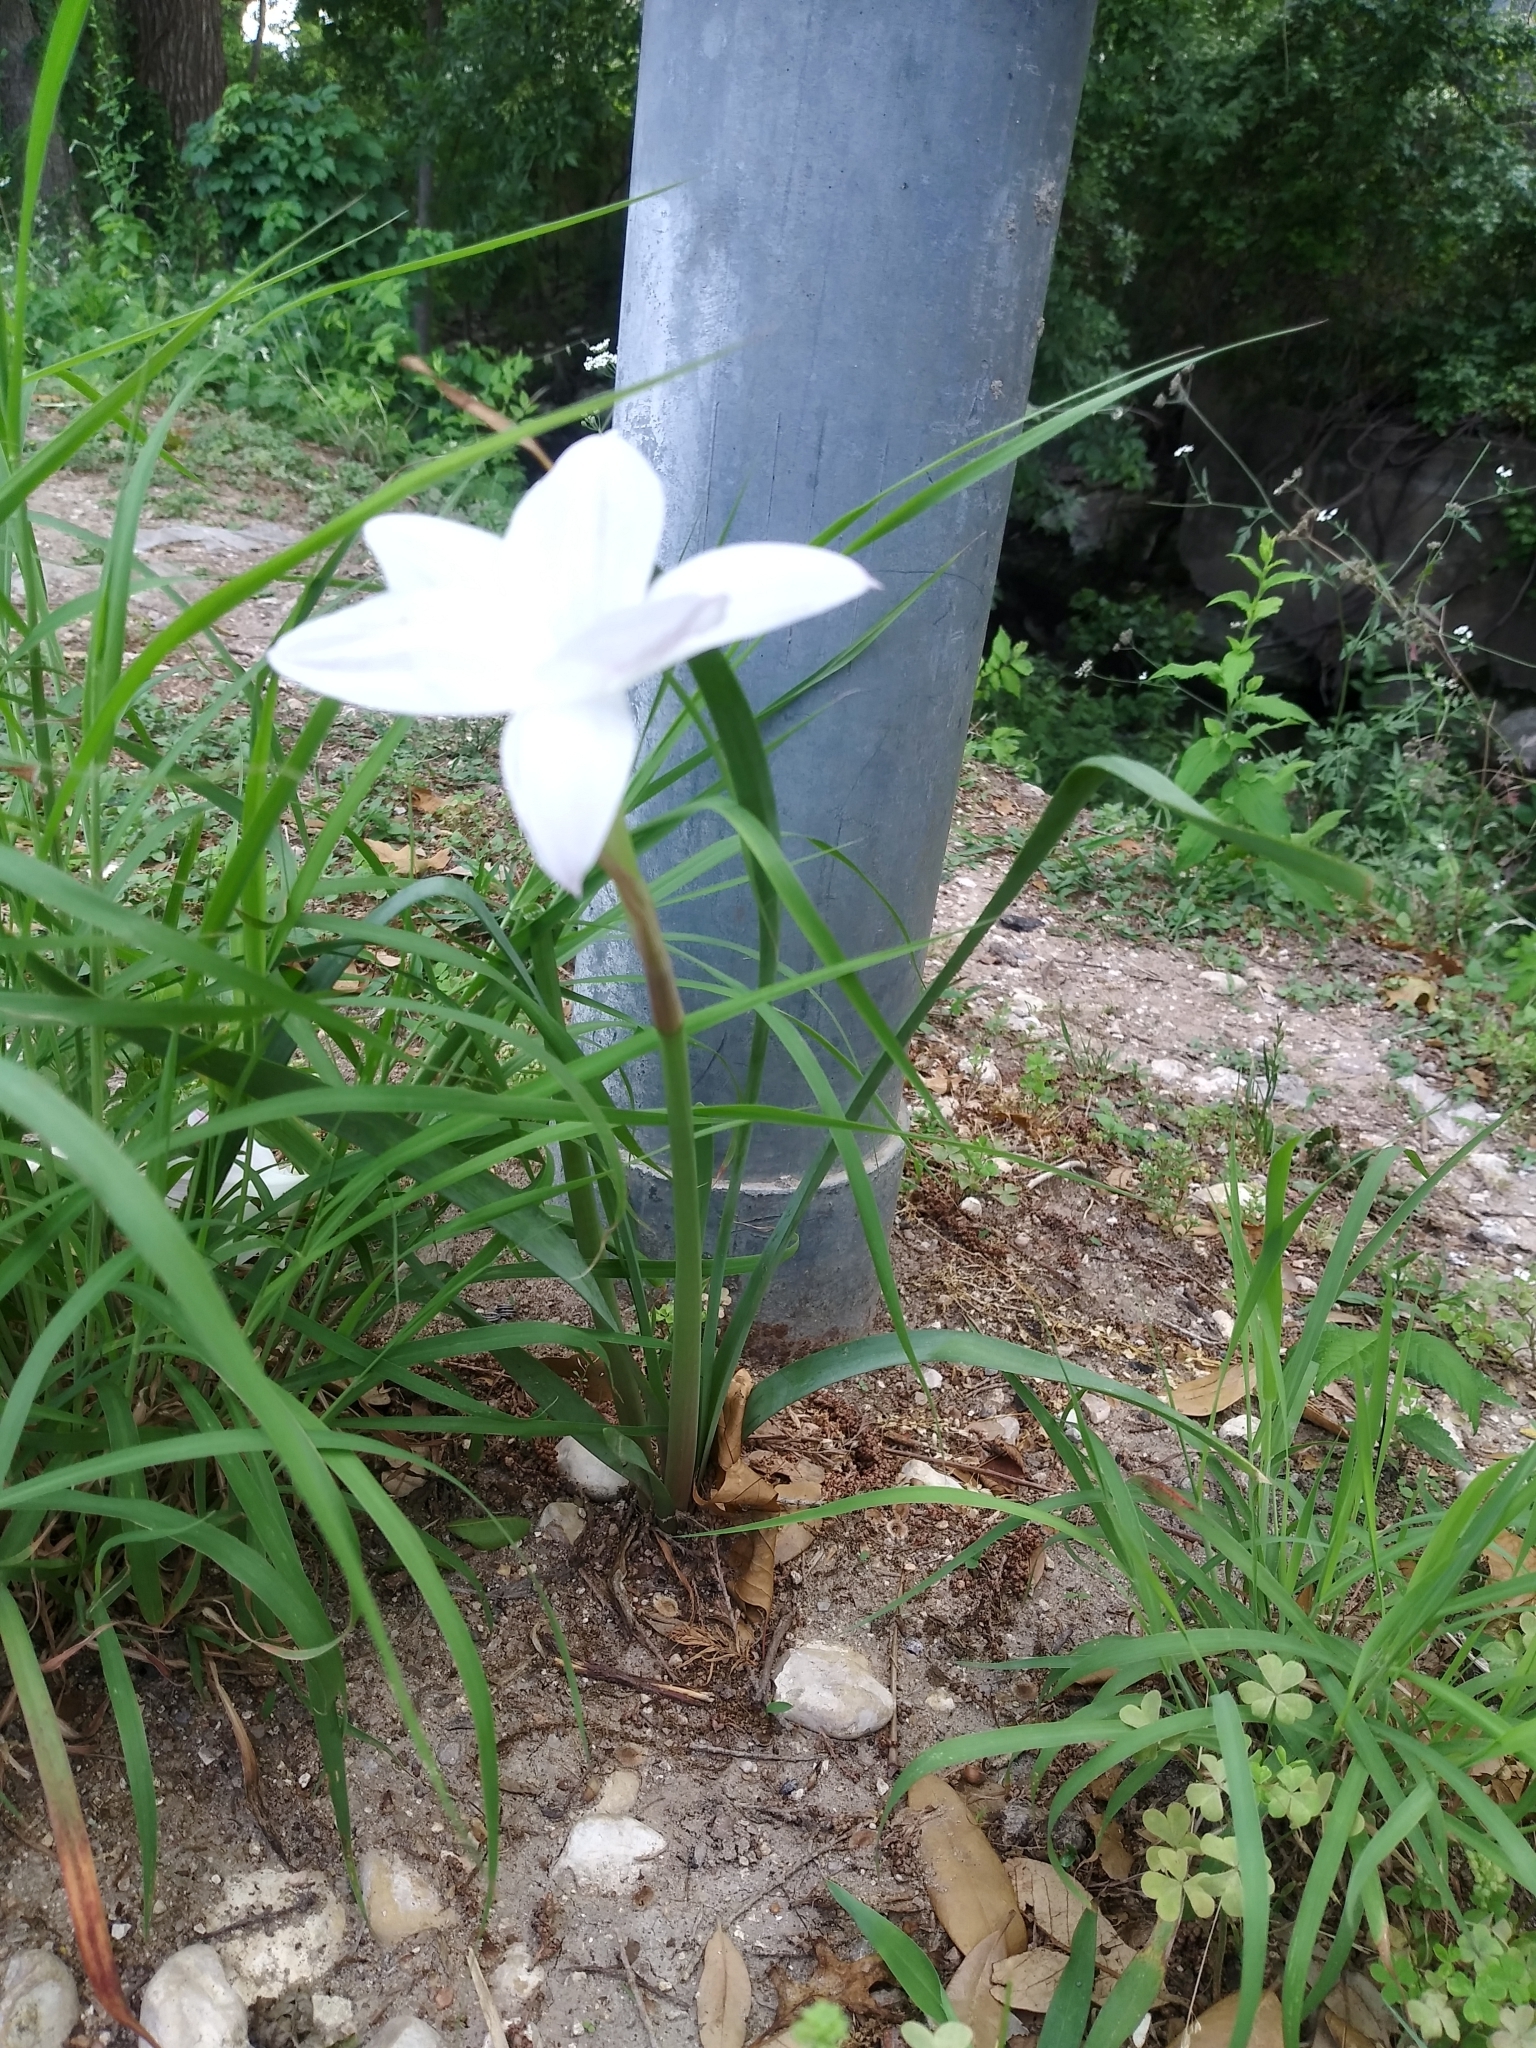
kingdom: Plantae
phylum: Tracheophyta
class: Liliopsida
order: Asparagales
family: Amaryllidaceae
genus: Zephyranthes
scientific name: Zephyranthes drummondii
